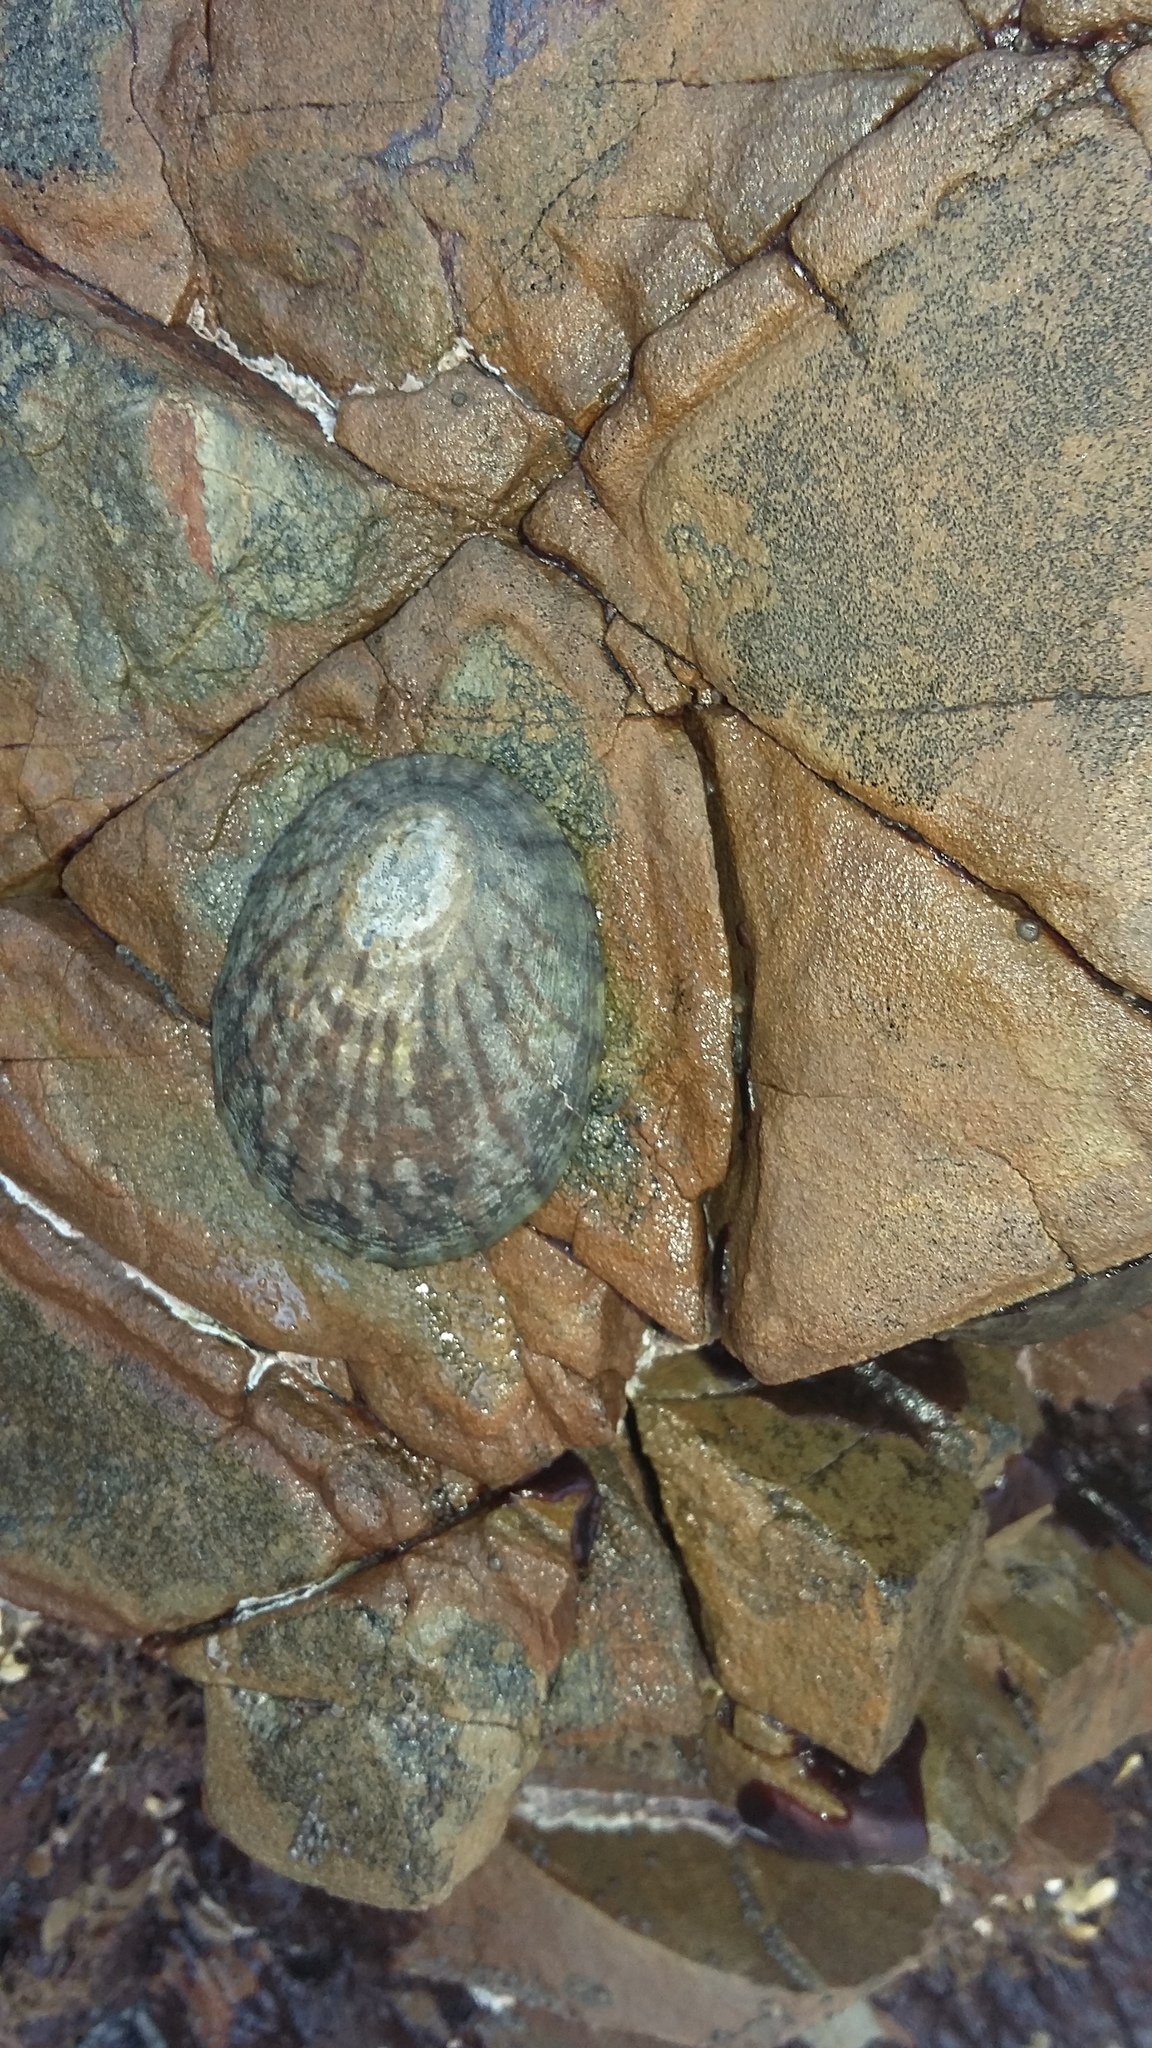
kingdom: Animalia
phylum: Mollusca
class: Gastropoda
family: Nacellidae
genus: Cellana
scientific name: Cellana radians
